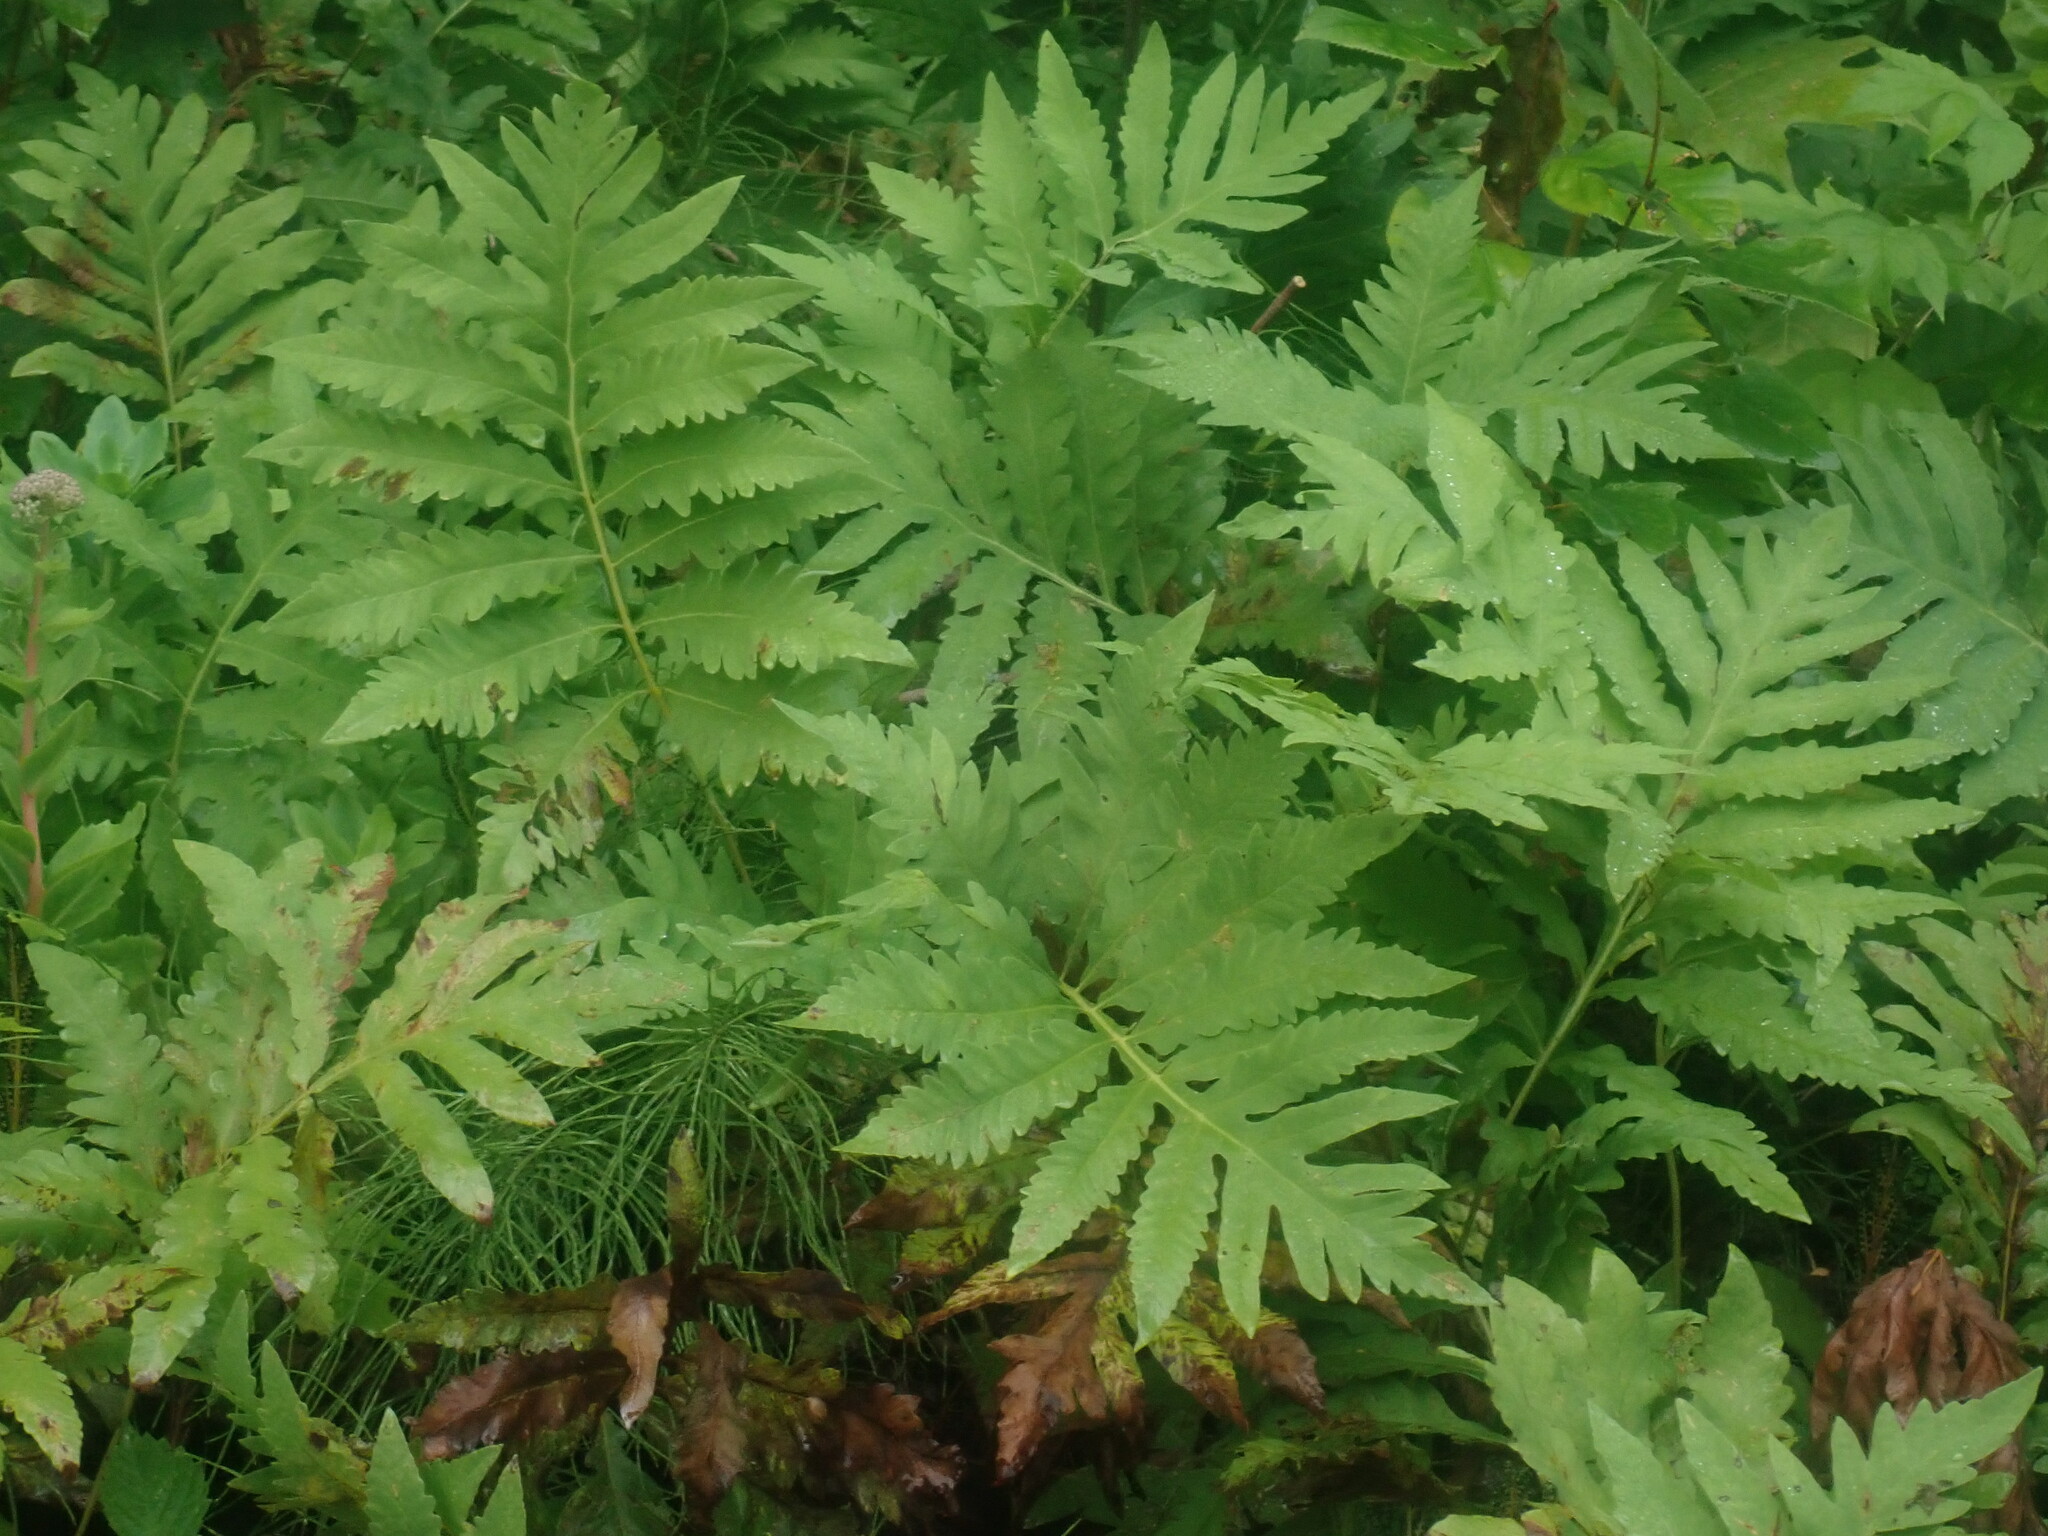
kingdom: Plantae
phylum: Tracheophyta
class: Polypodiopsida
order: Polypodiales
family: Onocleaceae
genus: Onoclea
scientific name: Onoclea sensibilis
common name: Sensitive fern
